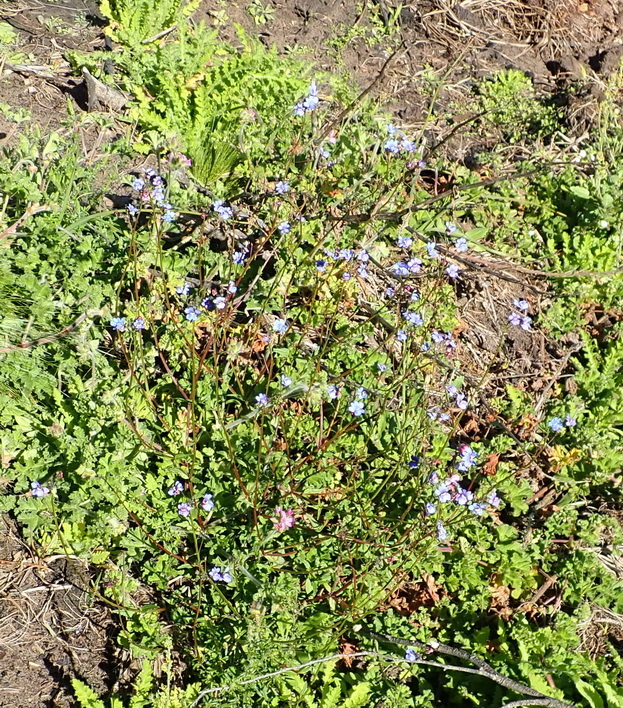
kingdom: Plantae
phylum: Tracheophyta
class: Magnoliopsida
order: Lamiales
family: Scrophulariaceae
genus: Nemesia
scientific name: Nemesia affinis
